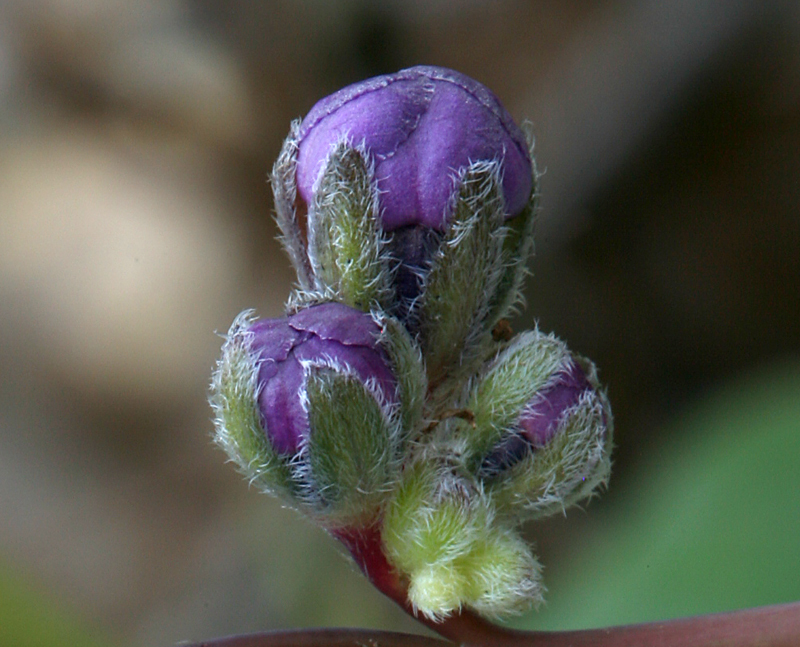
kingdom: Plantae
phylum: Tracheophyta
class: Magnoliopsida
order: Boraginales
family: Boraginaceae
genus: Adelinia
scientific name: Adelinia grande
